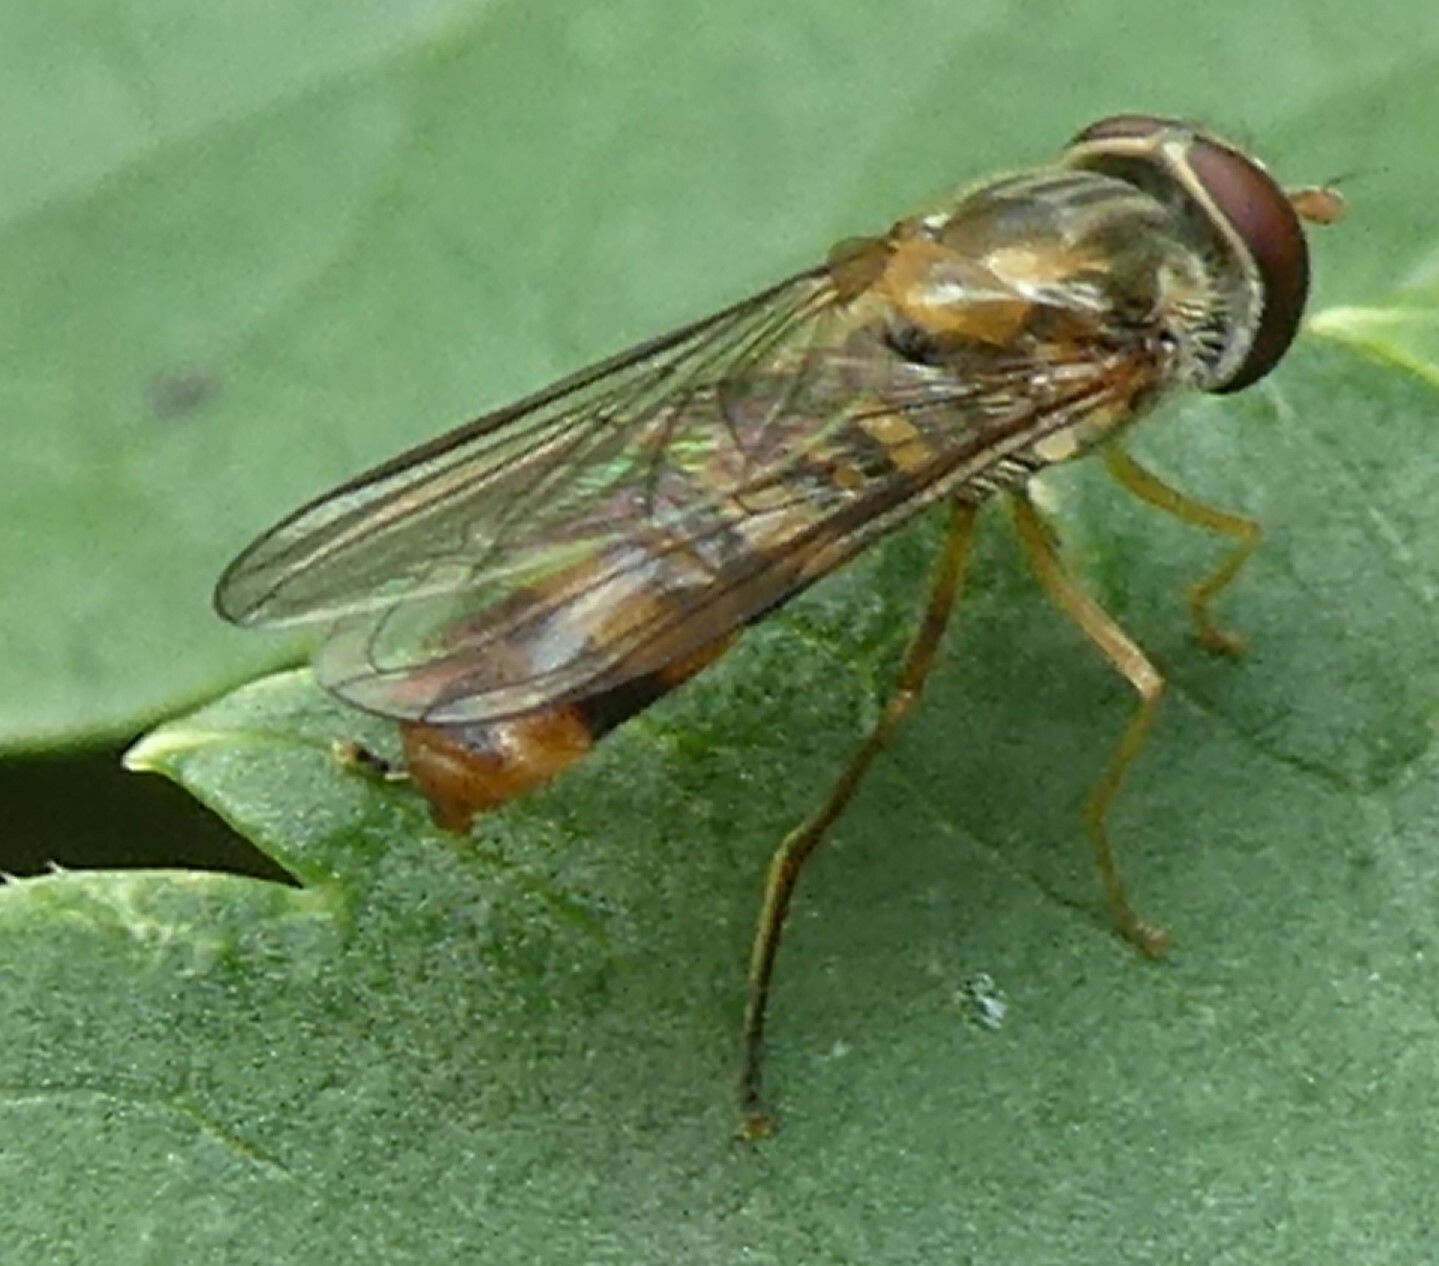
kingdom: Animalia
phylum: Arthropoda
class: Insecta
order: Diptera
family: Syrphidae
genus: Episyrphus
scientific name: Episyrphus balteatus
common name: Marmalade hoverfly
